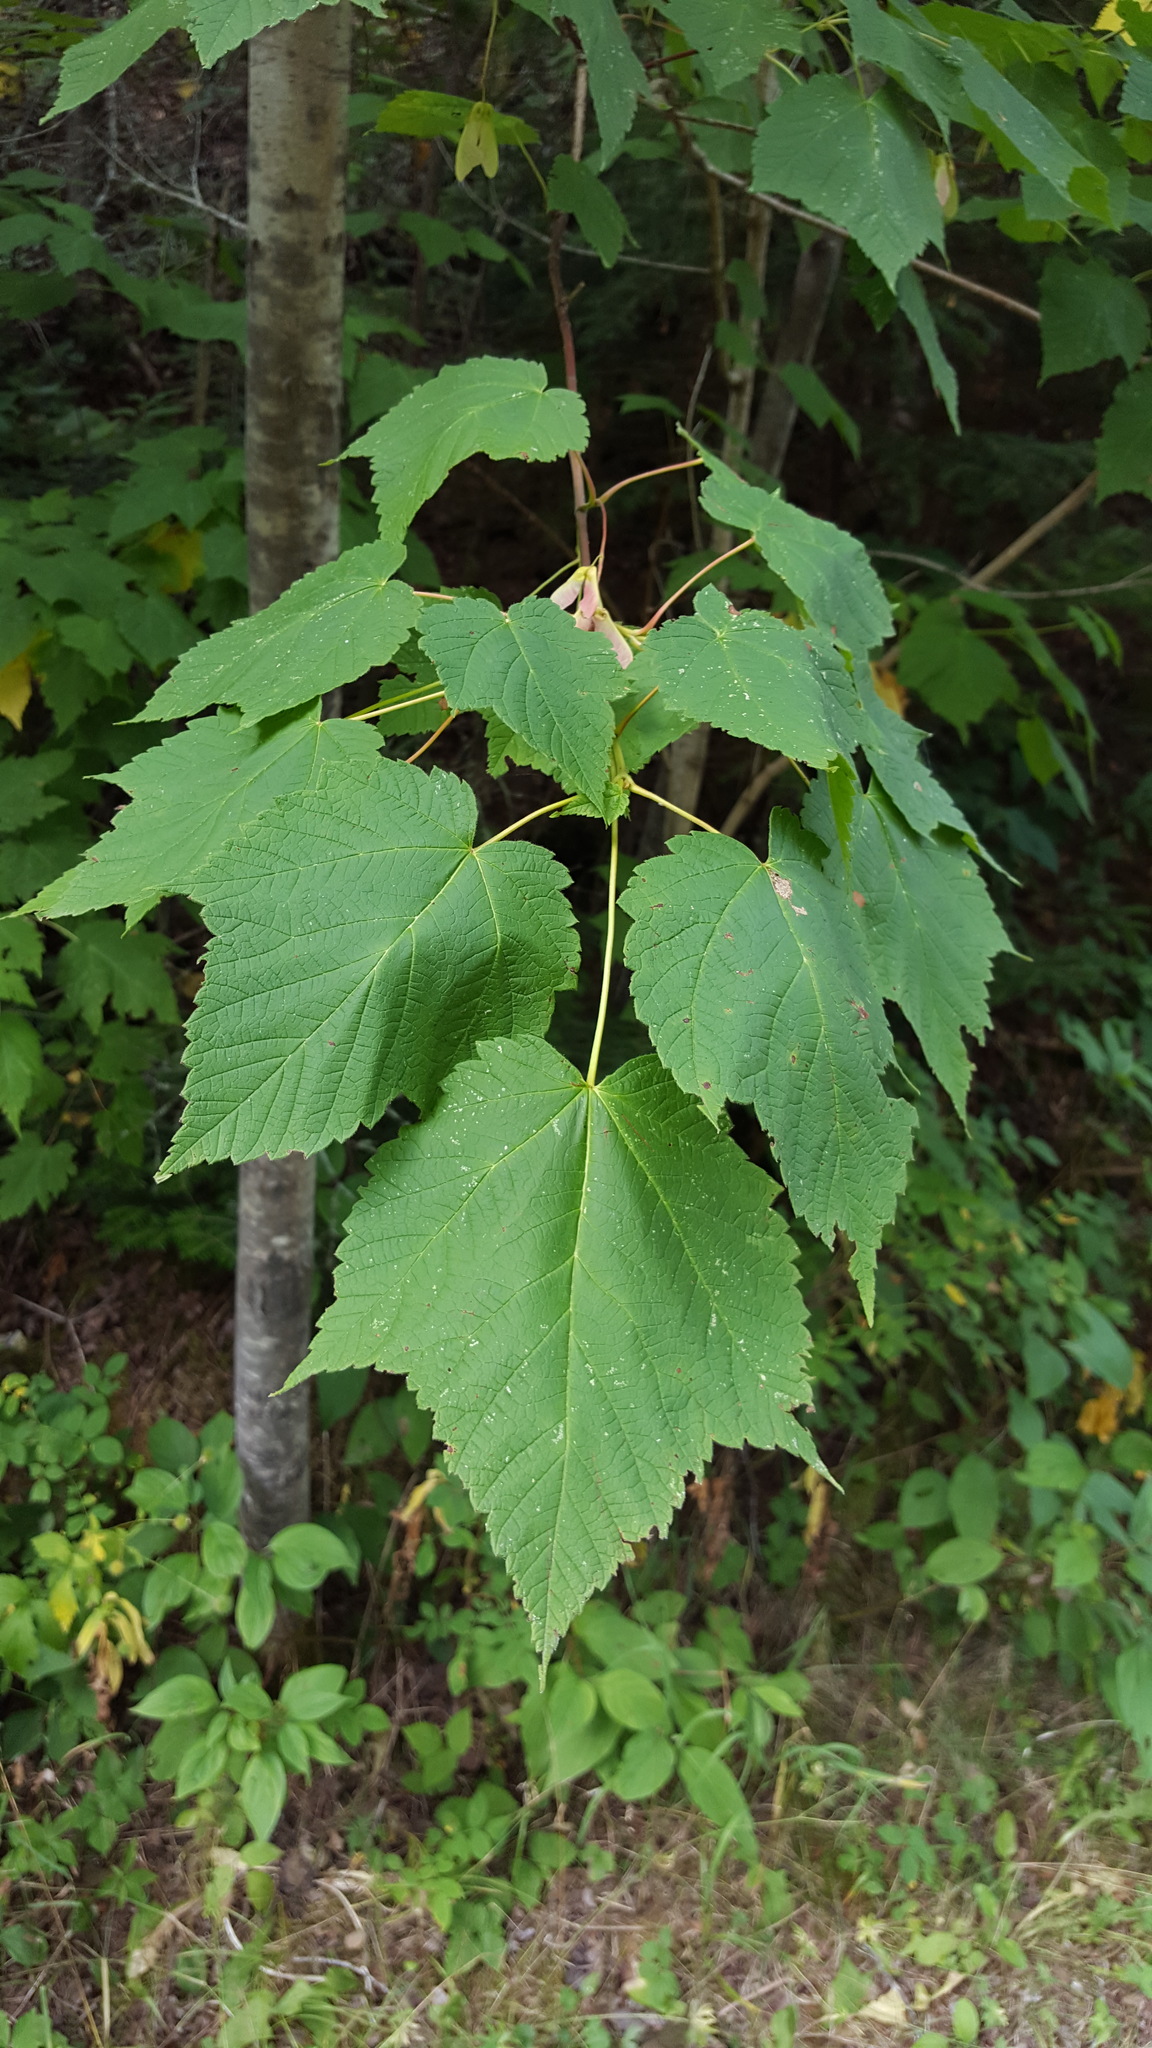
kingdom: Plantae
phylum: Tracheophyta
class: Magnoliopsida
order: Sapindales
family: Sapindaceae
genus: Acer
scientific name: Acer spicatum
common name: Mountain maple
